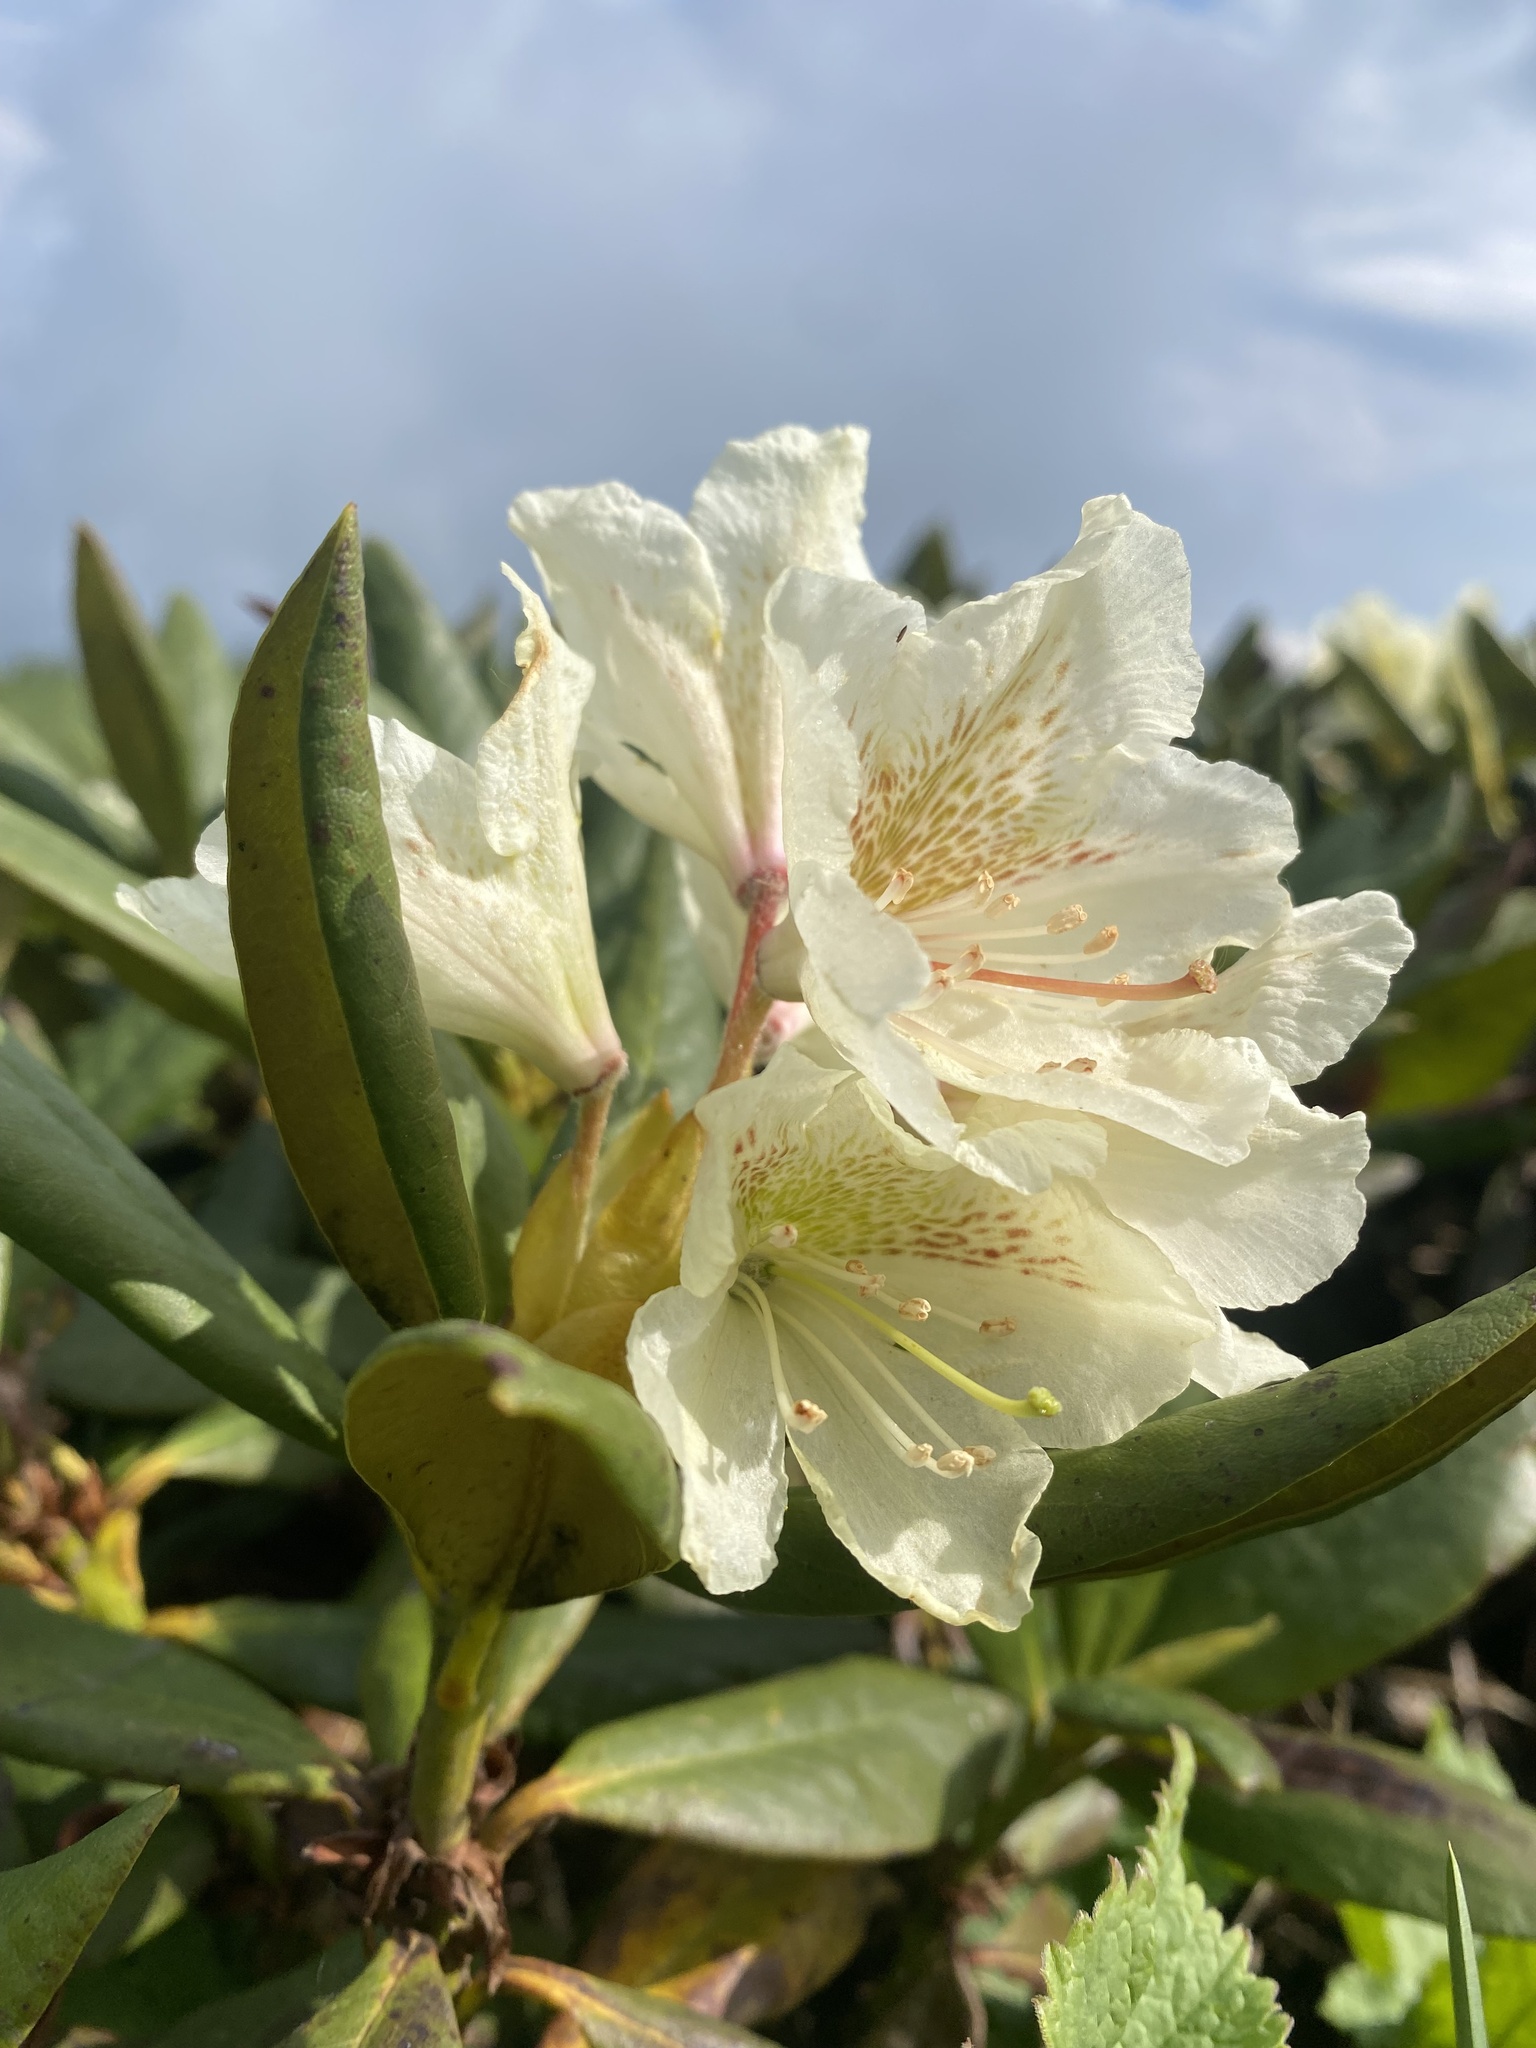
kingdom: Plantae
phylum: Tracheophyta
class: Magnoliopsida
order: Ericales
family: Ericaceae
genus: Rhododendron
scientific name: Rhododendron caucasicum
